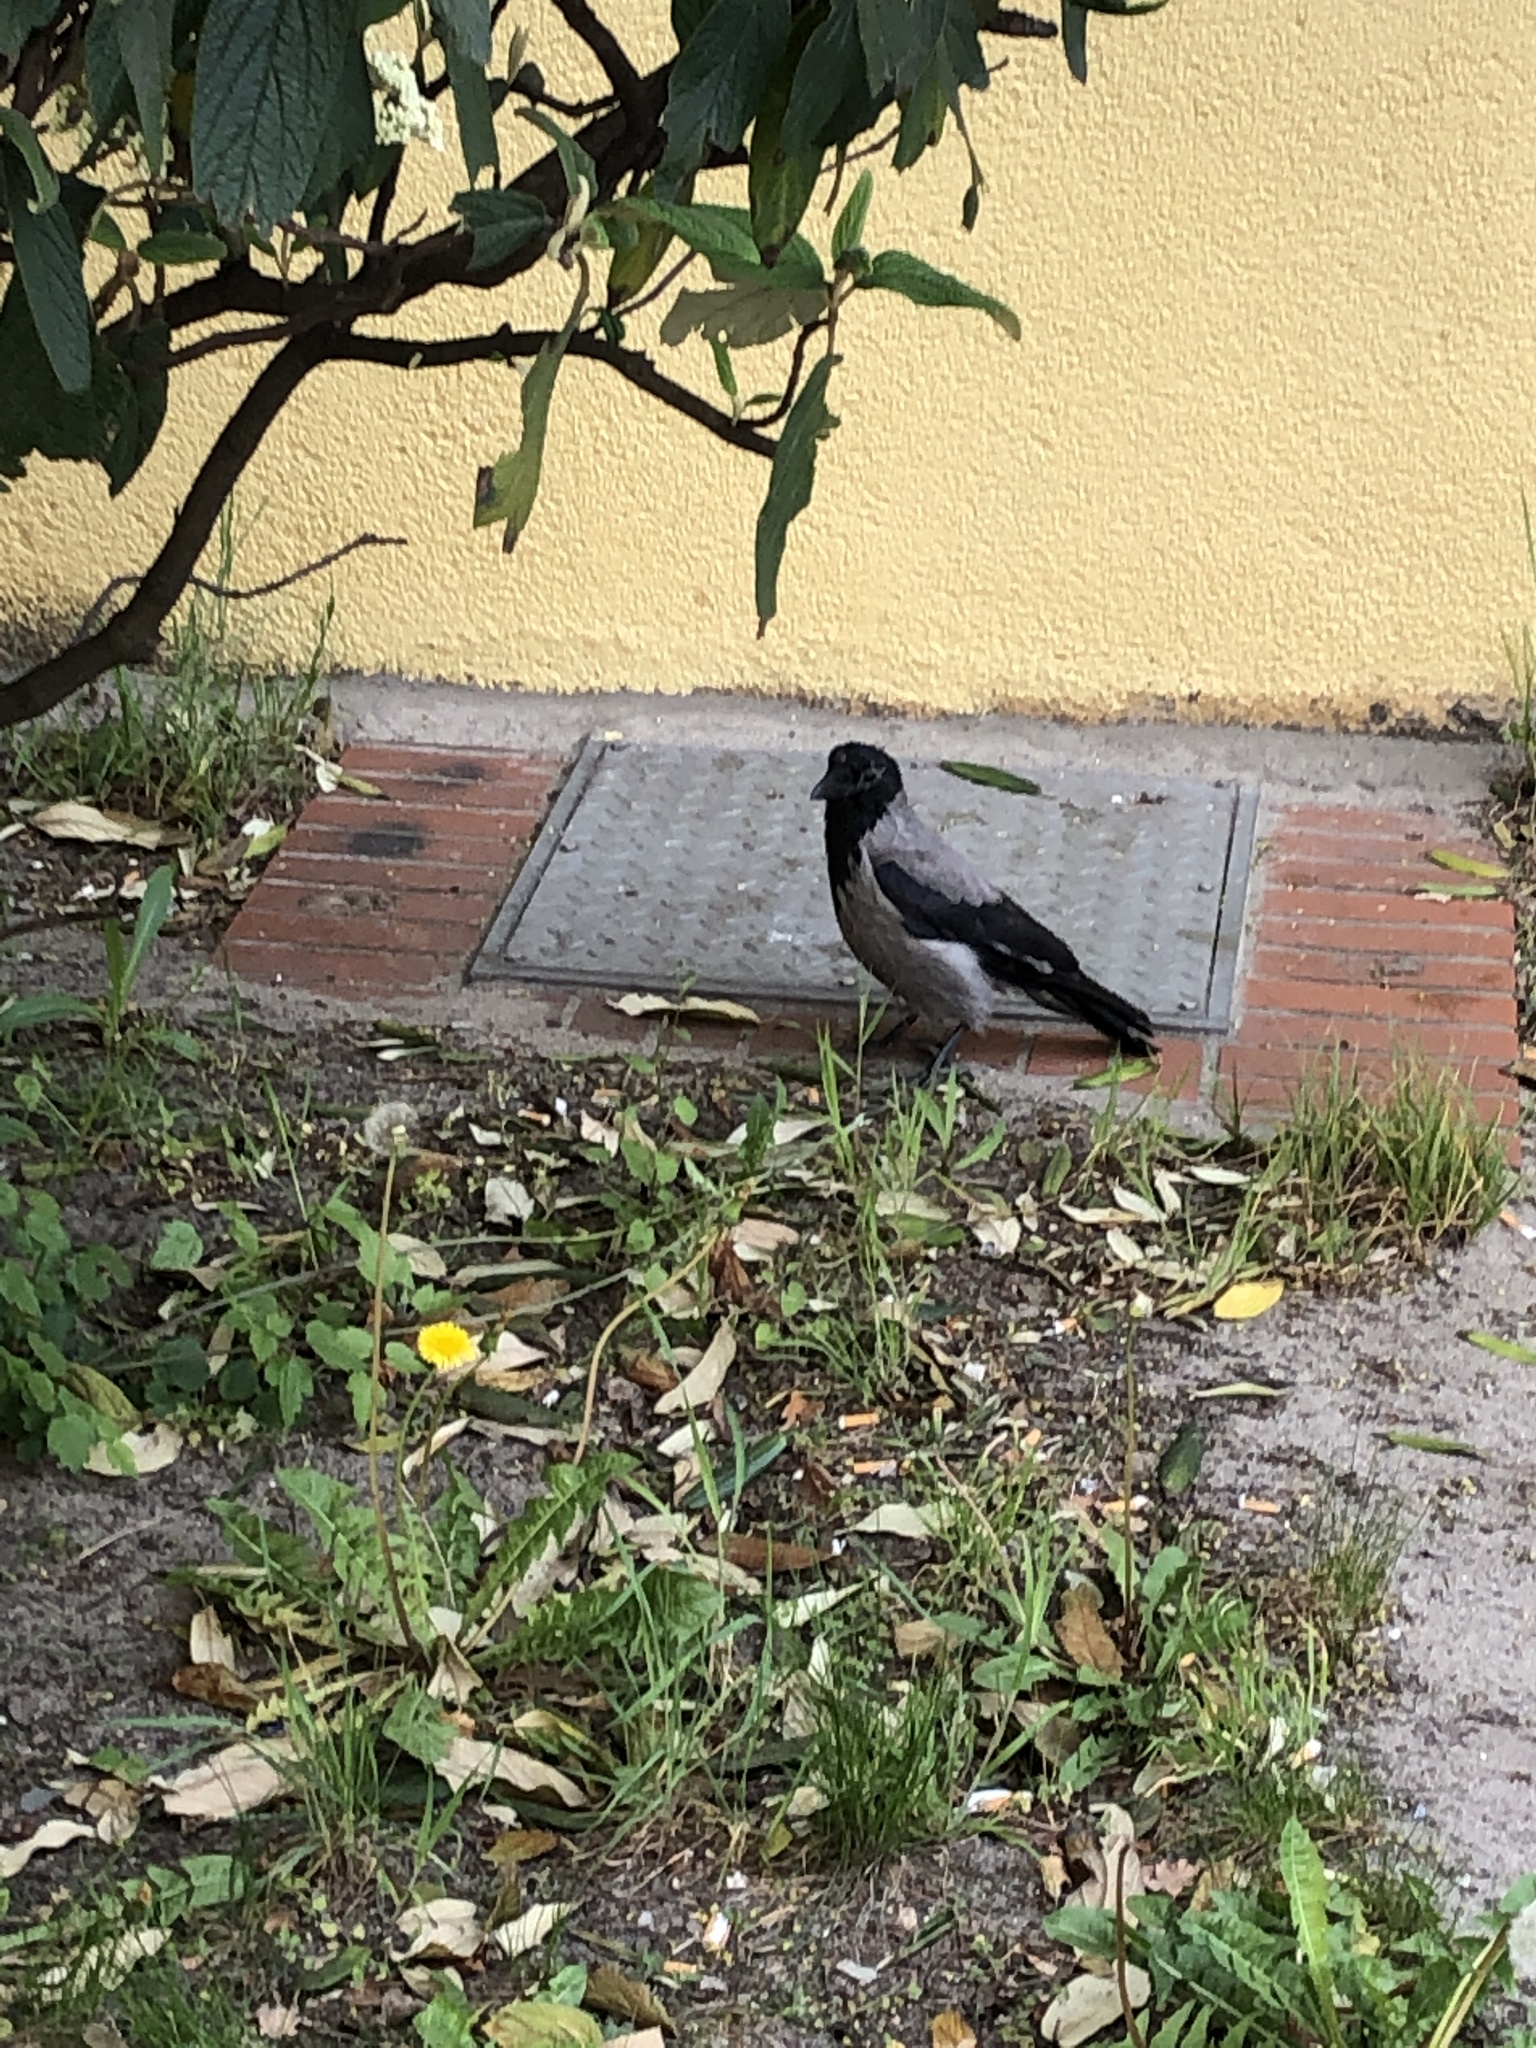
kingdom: Animalia
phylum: Chordata
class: Aves
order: Passeriformes
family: Corvidae
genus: Corvus
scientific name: Corvus cornix
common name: Hooded crow
